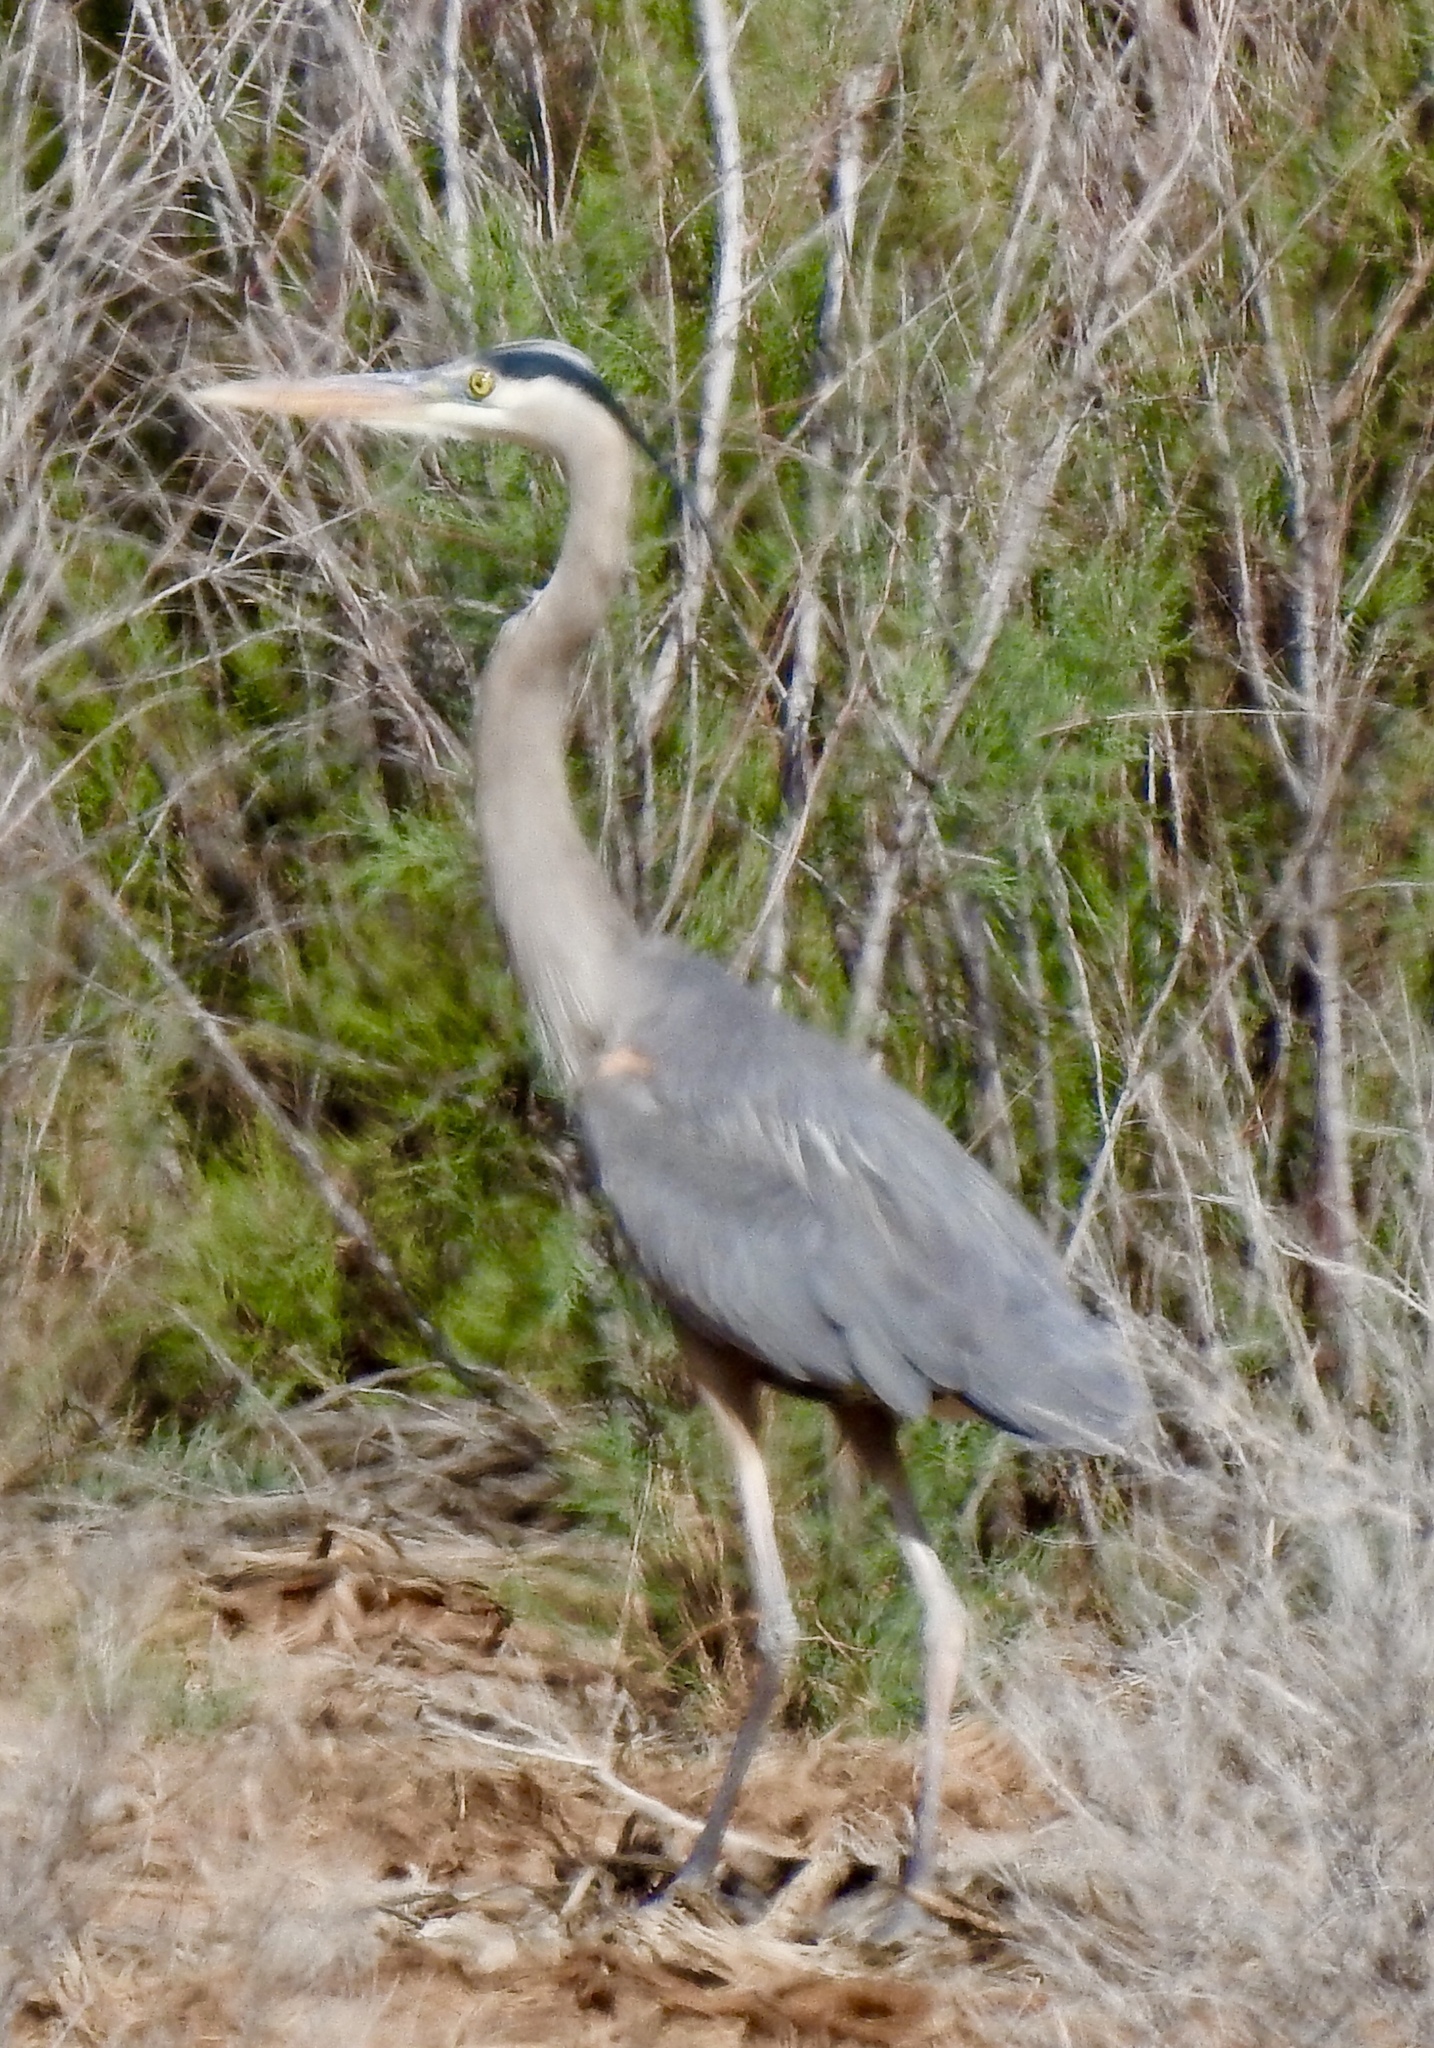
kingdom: Animalia
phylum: Chordata
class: Aves
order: Pelecaniformes
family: Ardeidae
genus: Ardea
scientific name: Ardea herodias
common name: Great blue heron
